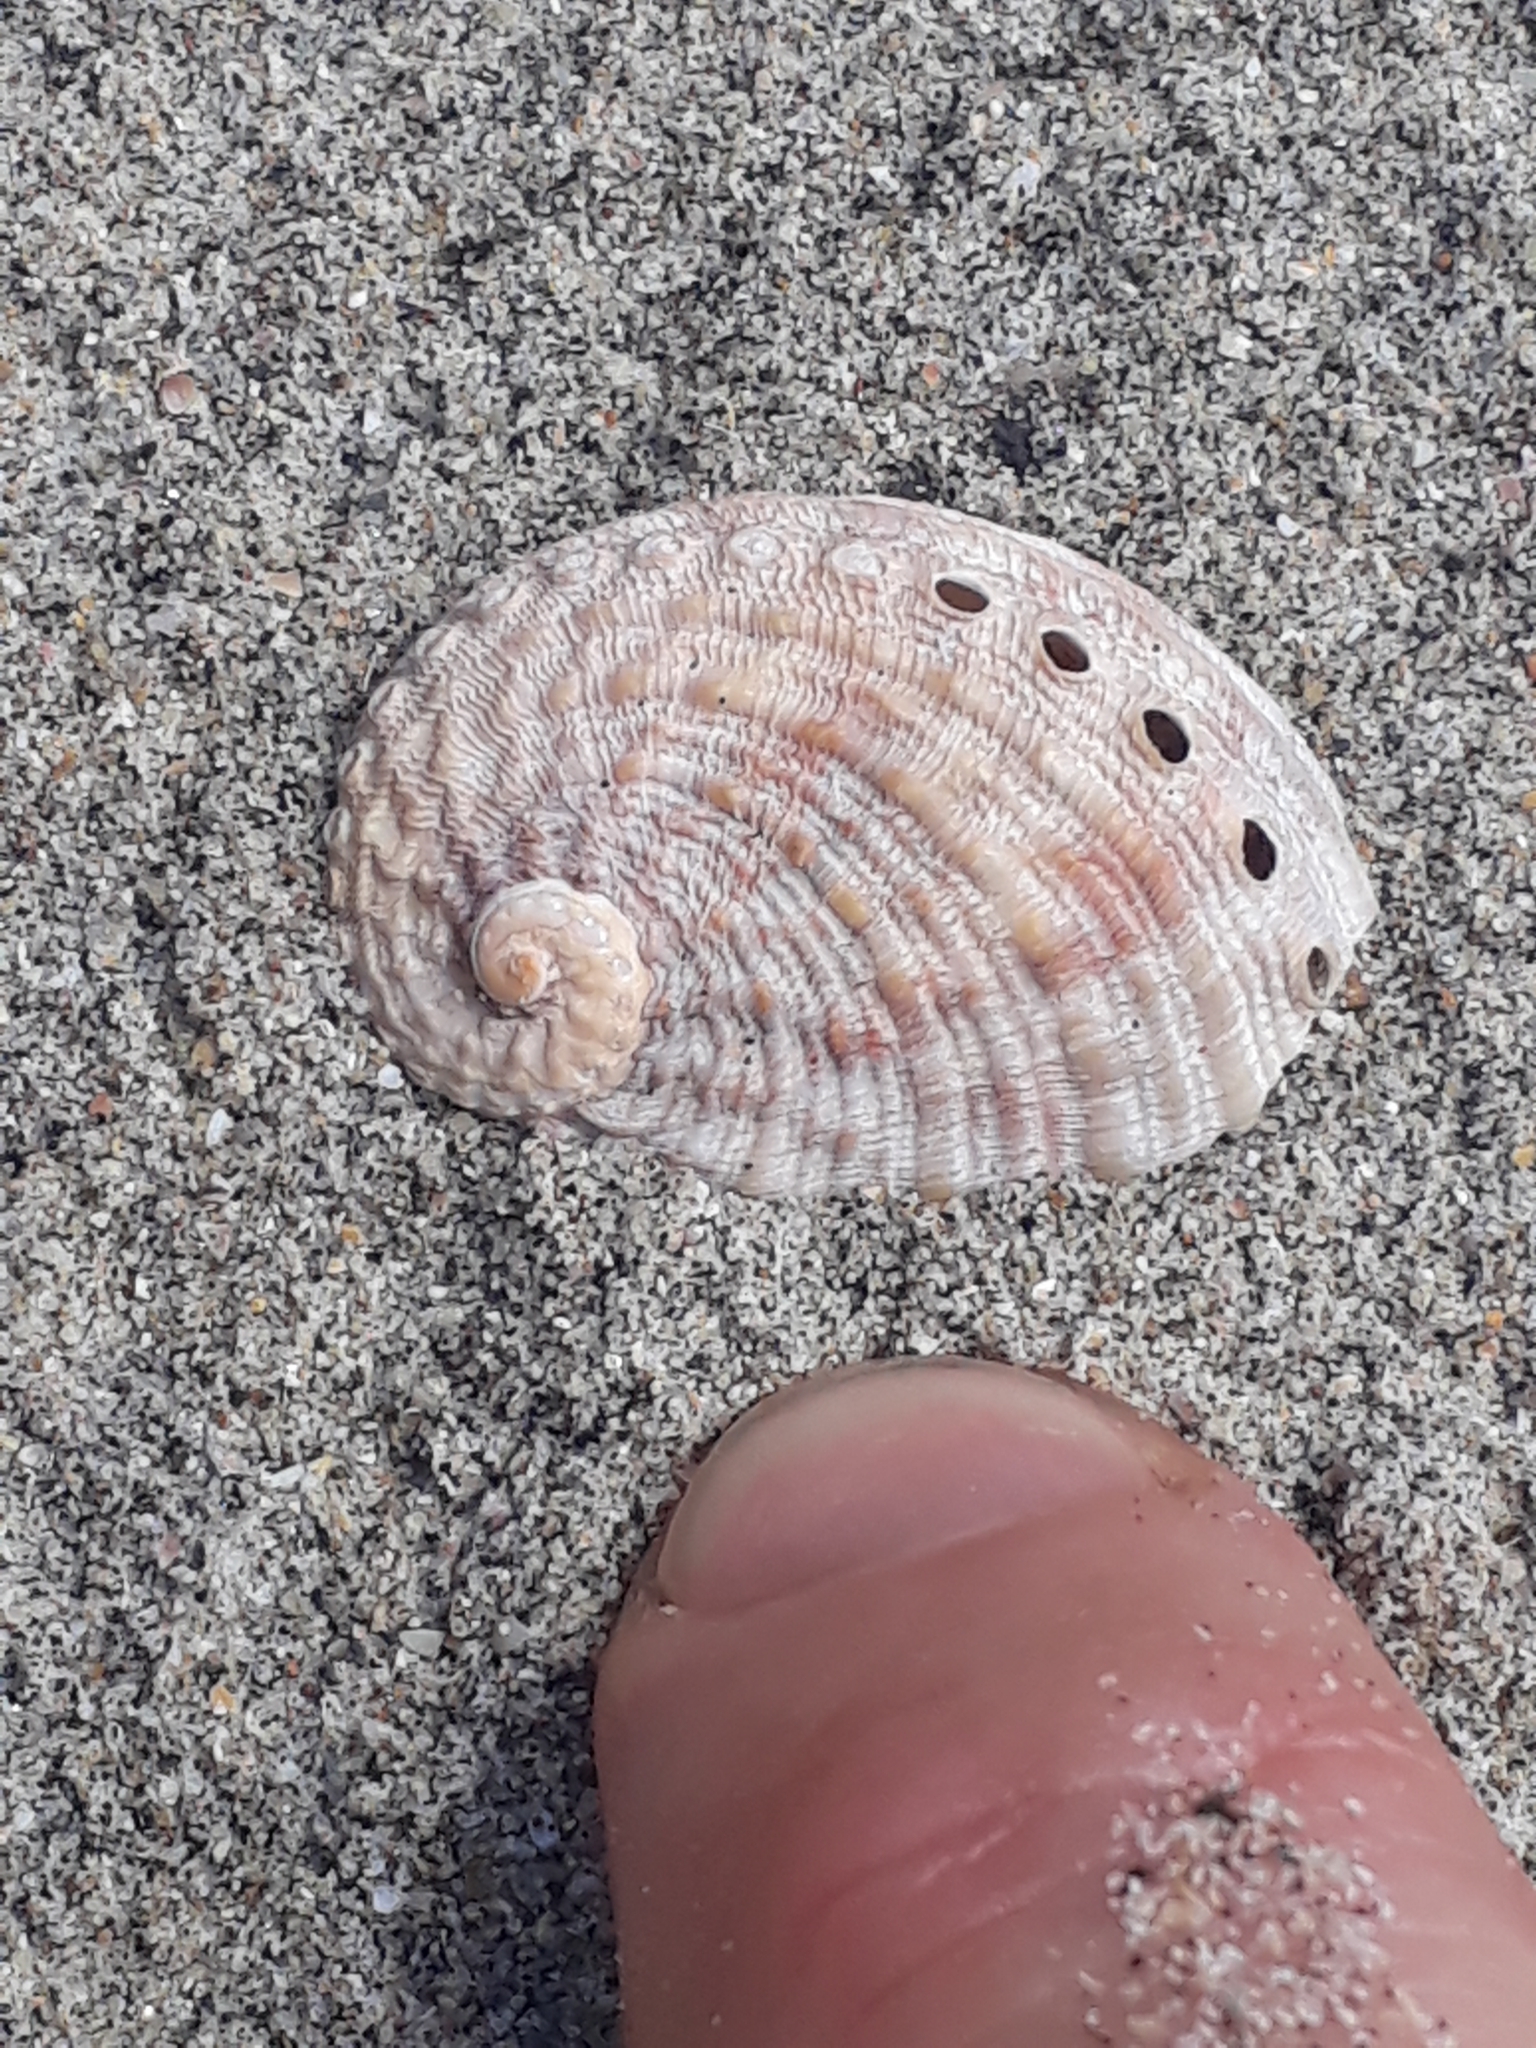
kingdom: Animalia
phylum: Mollusca
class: Gastropoda
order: Lepetellida
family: Haliotidae
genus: Haliotis
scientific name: Haliotis australis
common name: Silver abalone
